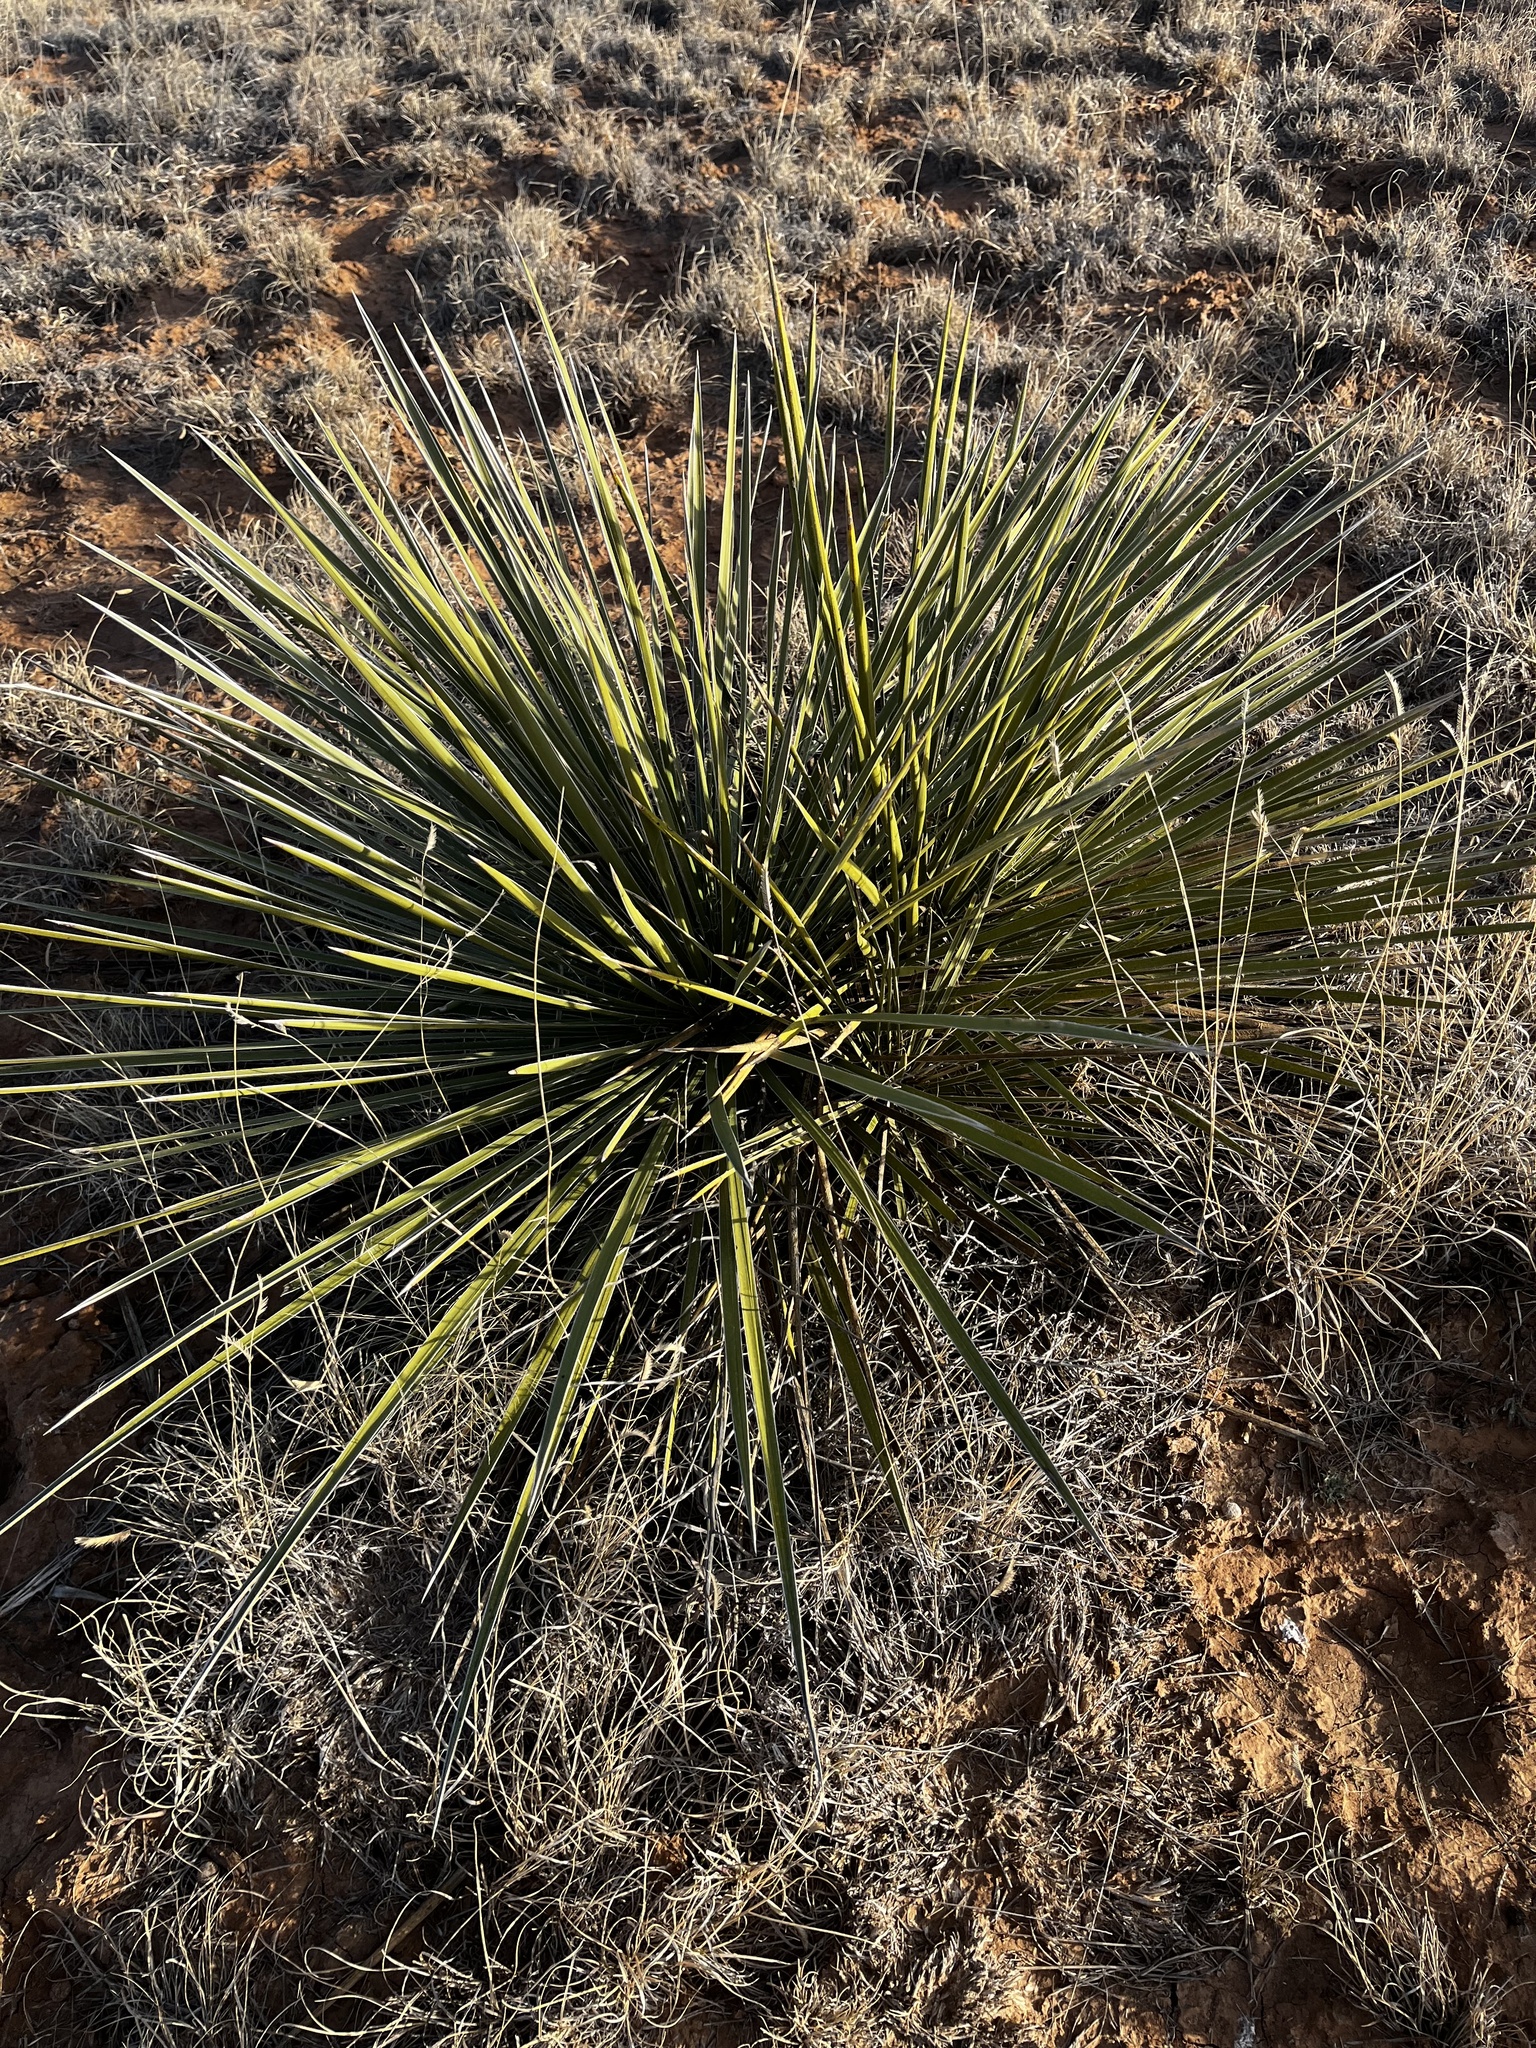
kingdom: Plantae
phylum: Tracheophyta
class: Liliopsida
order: Asparagales
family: Asparagaceae
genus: Yucca
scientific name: Yucca campestris
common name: Plains yucca
